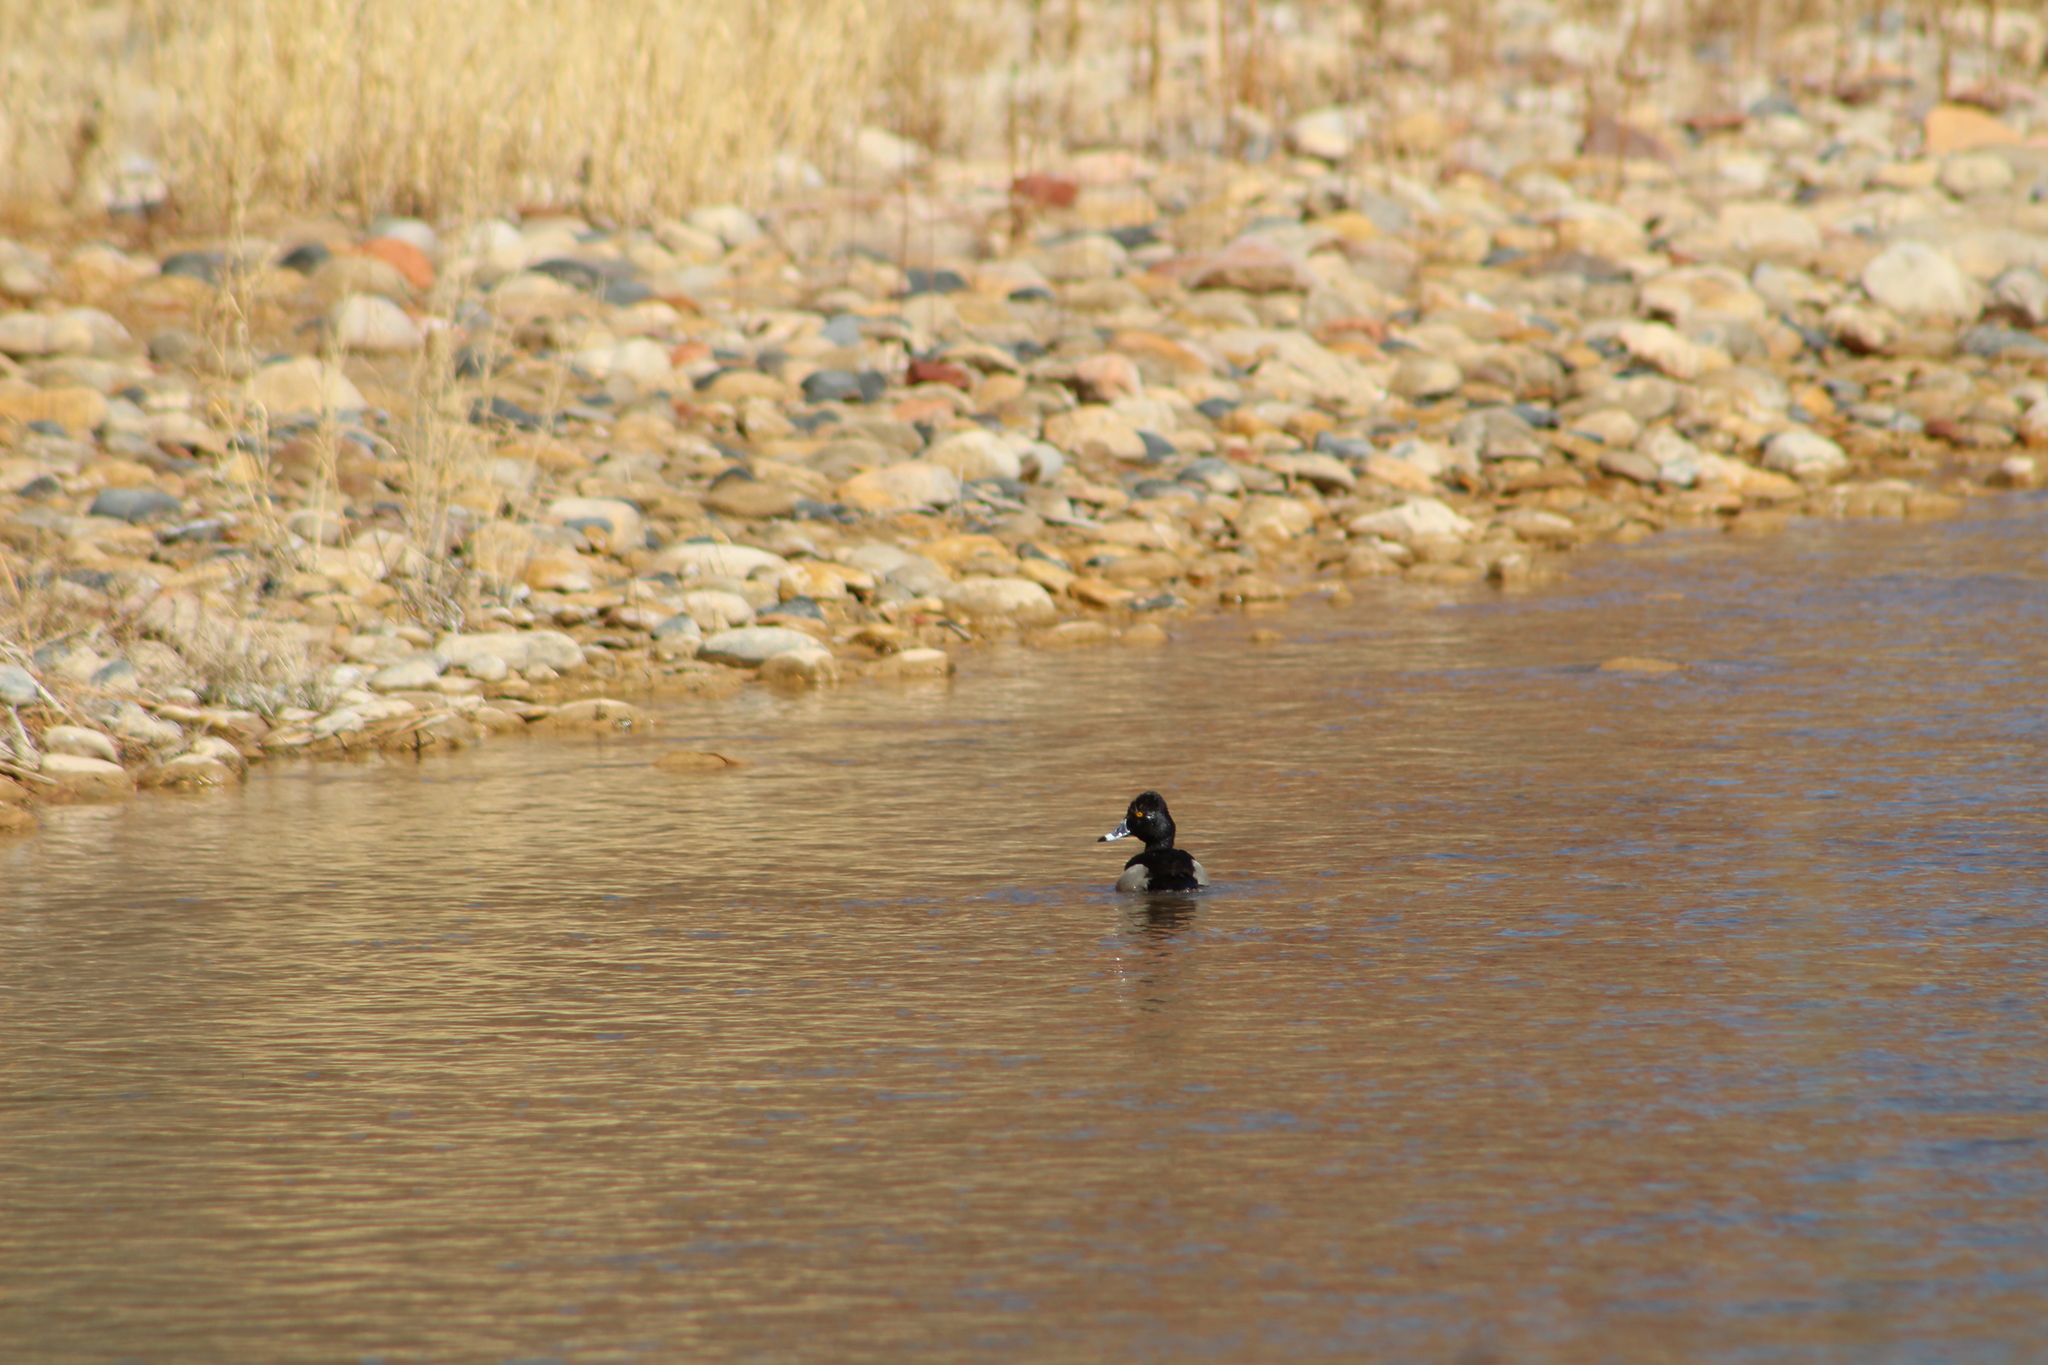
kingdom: Animalia
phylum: Chordata
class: Aves
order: Anseriformes
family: Anatidae
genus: Aythya
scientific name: Aythya collaris
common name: Ring-necked duck
